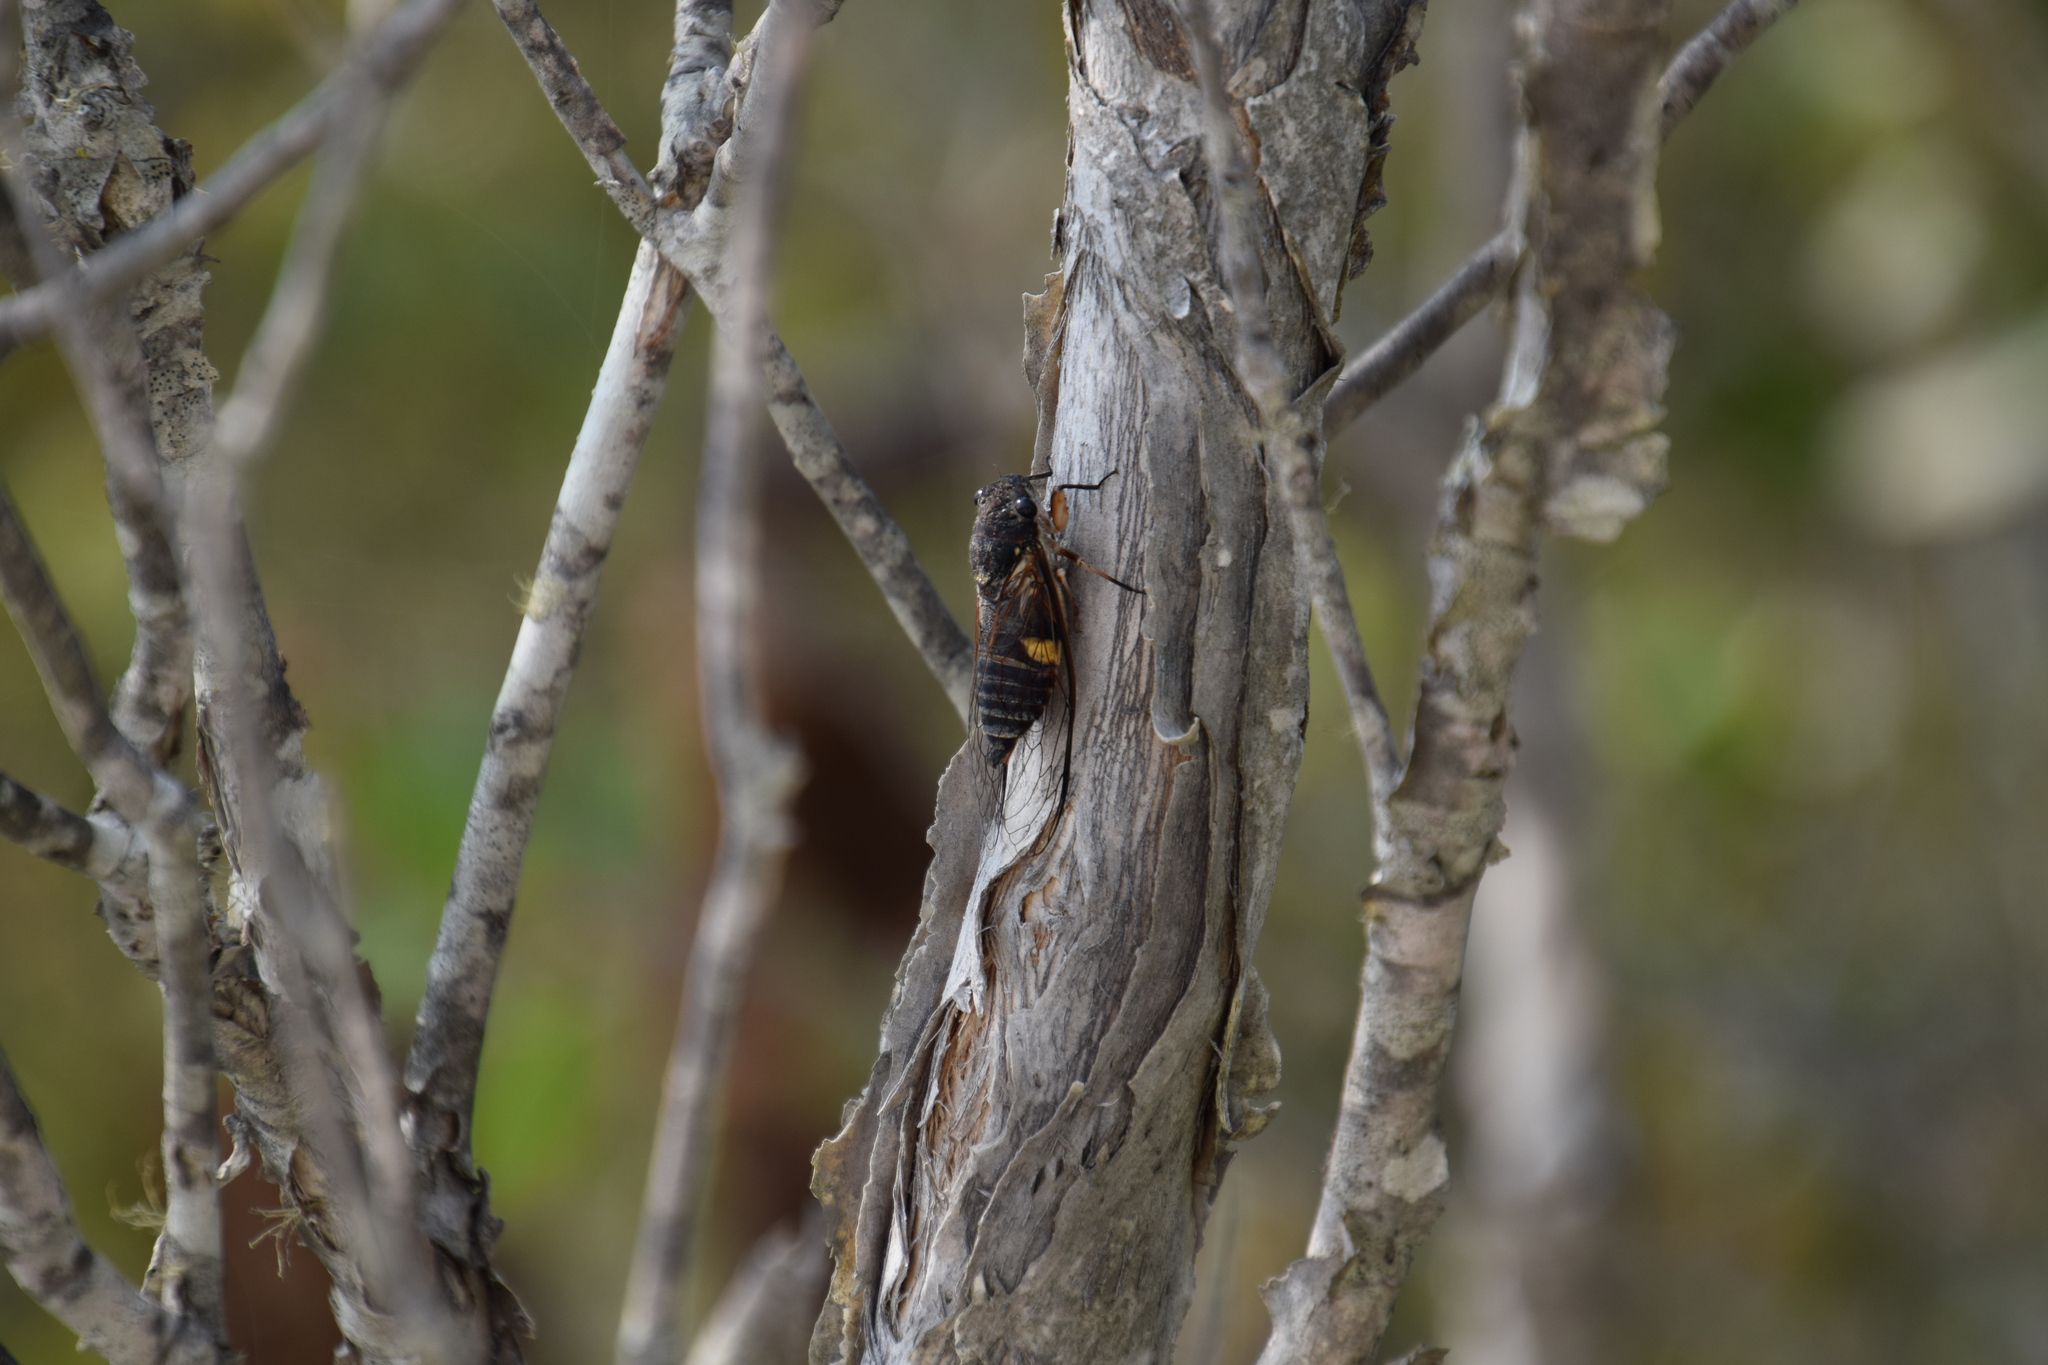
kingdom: Animalia
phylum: Arthropoda
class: Insecta
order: Hemiptera
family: Cicadidae
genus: Psaltoda
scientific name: Psaltoda harrisii
